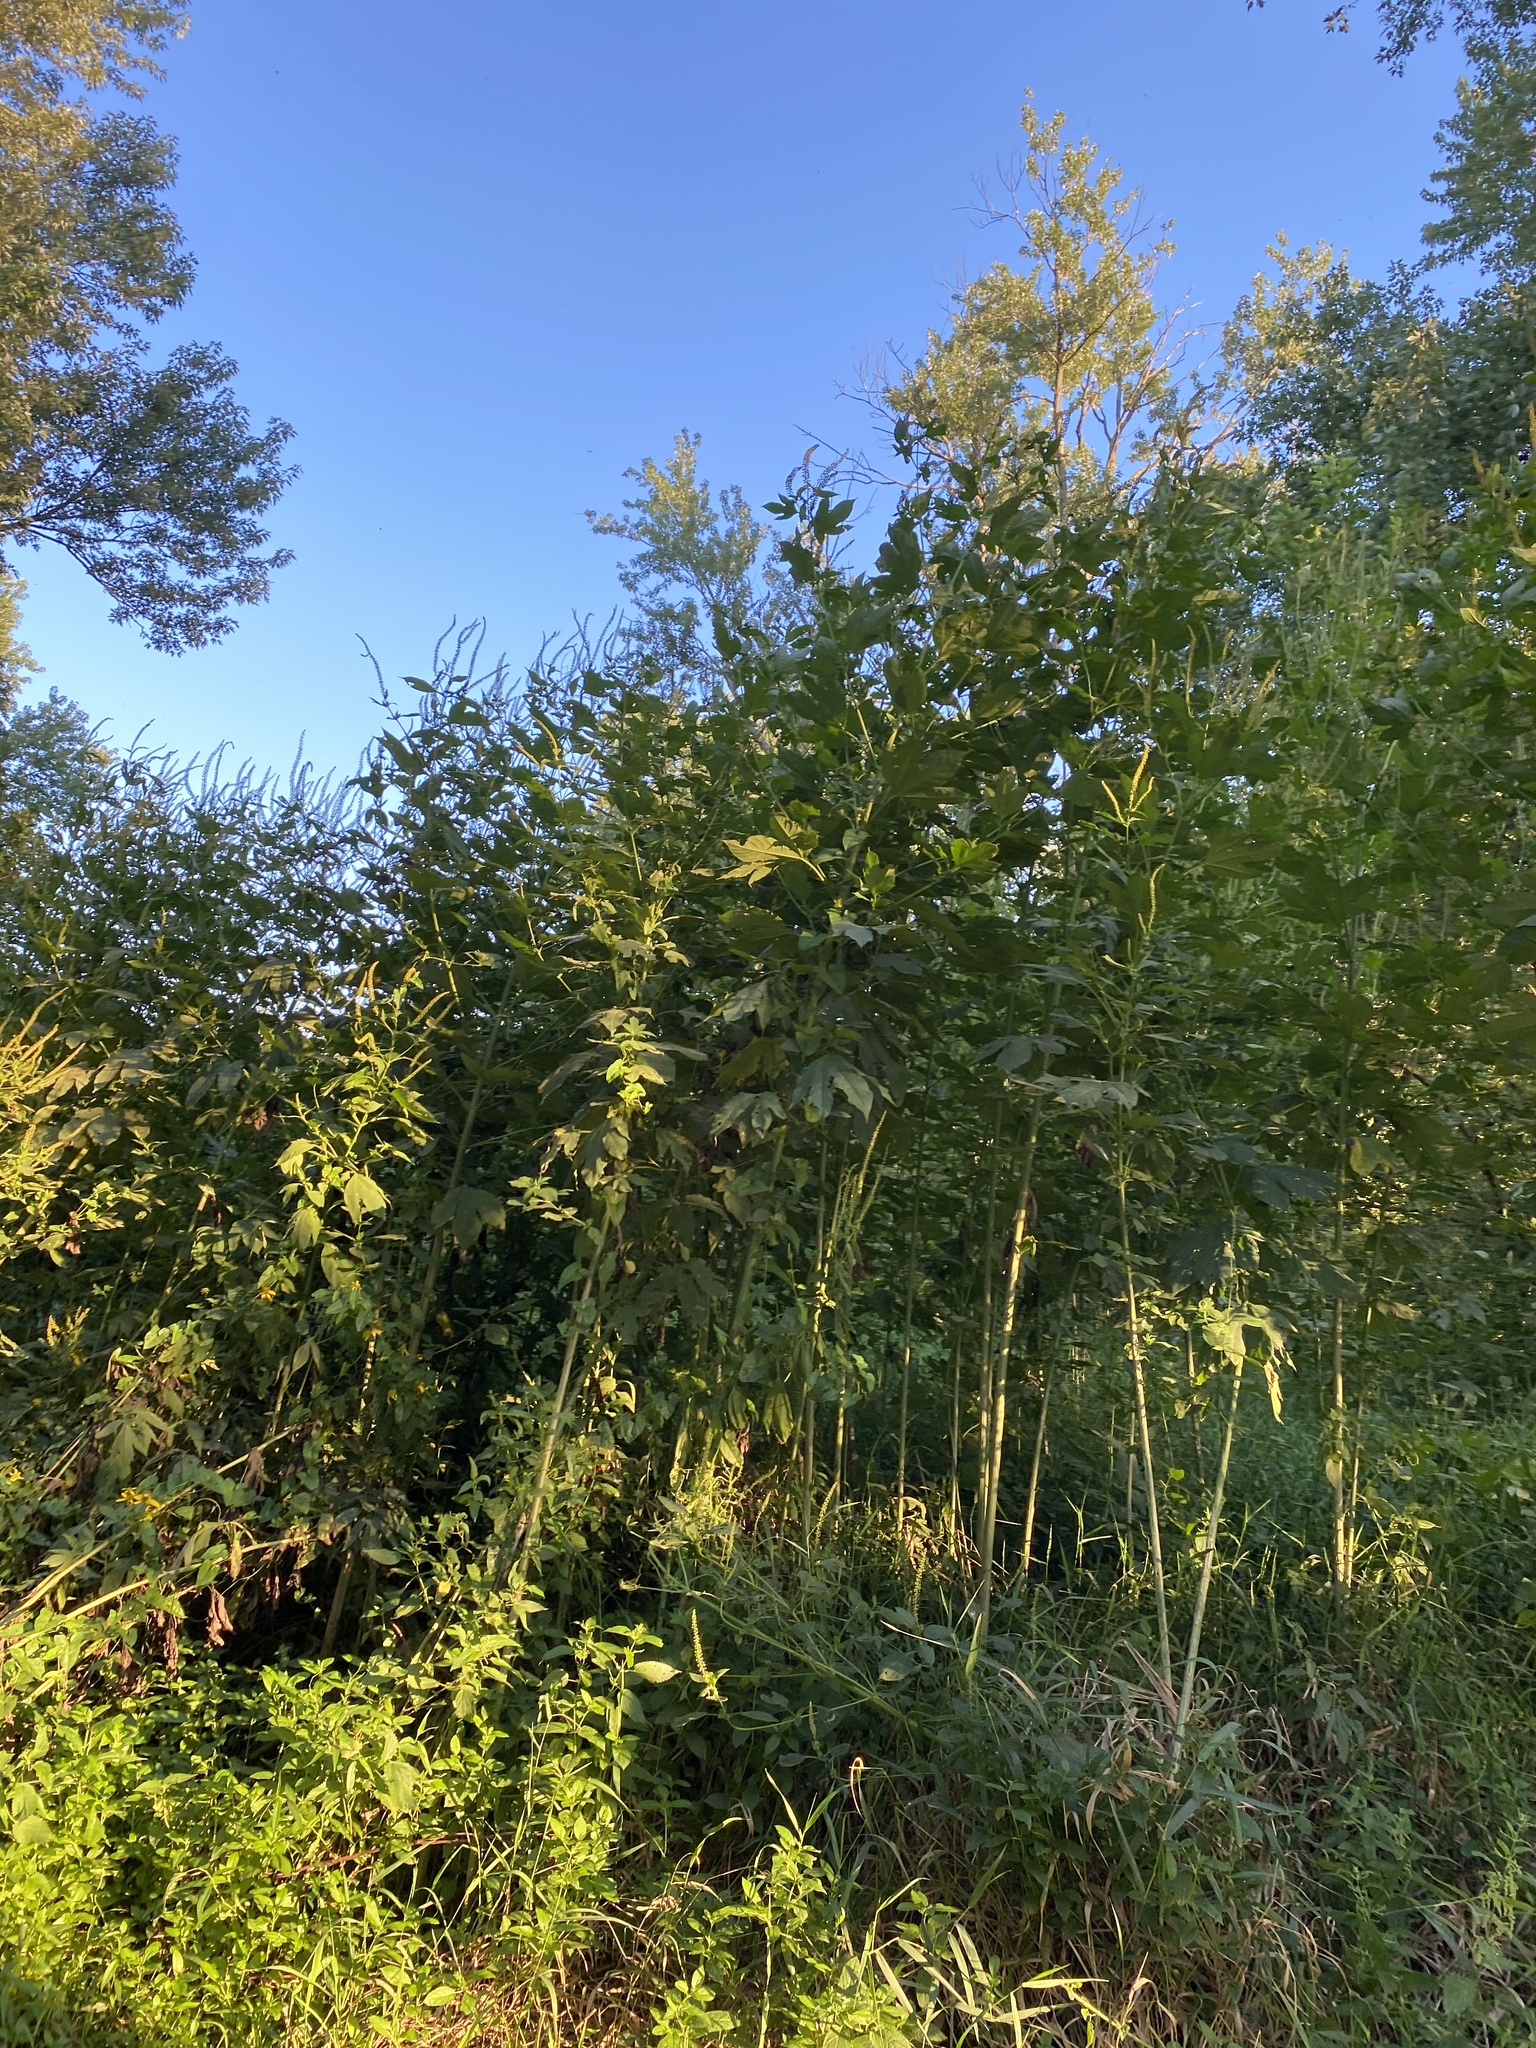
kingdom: Plantae
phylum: Tracheophyta
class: Magnoliopsida
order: Asterales
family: Asteraceae
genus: Ambrosia
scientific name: Ambrosia trifida
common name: Giant ragweed
